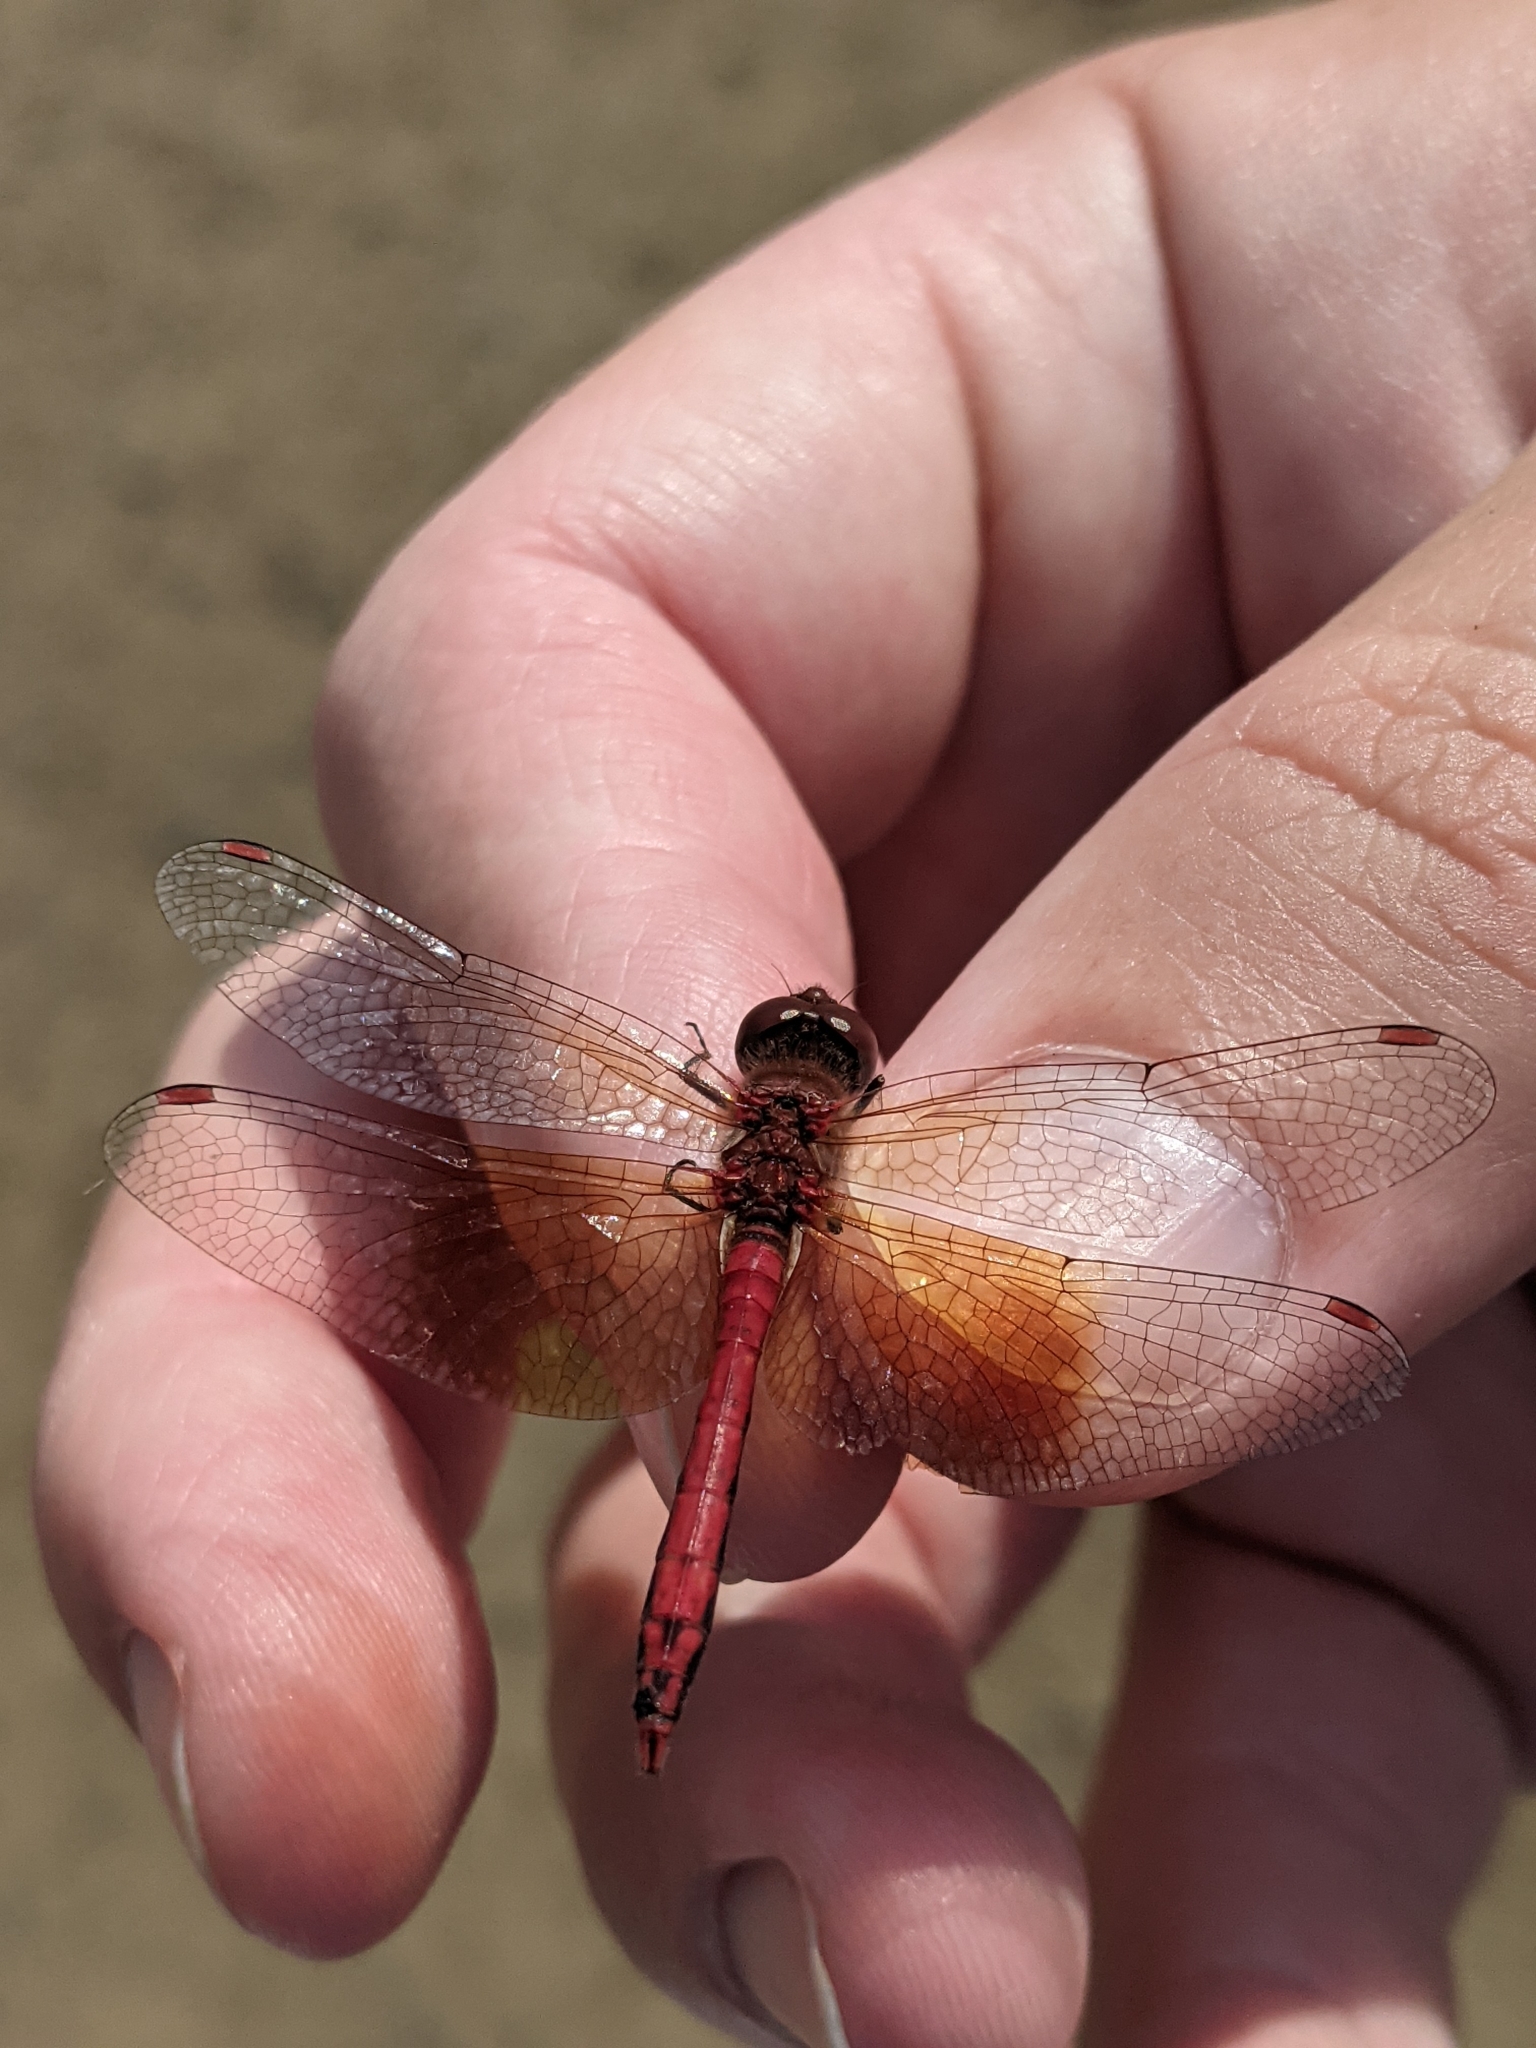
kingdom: Animalia
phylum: Arthropoda
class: Insecta
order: Odonata
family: Libellulidae
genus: Sympetrum
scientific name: Sympetrum semicinctum
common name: Band-winged meadowhawk
